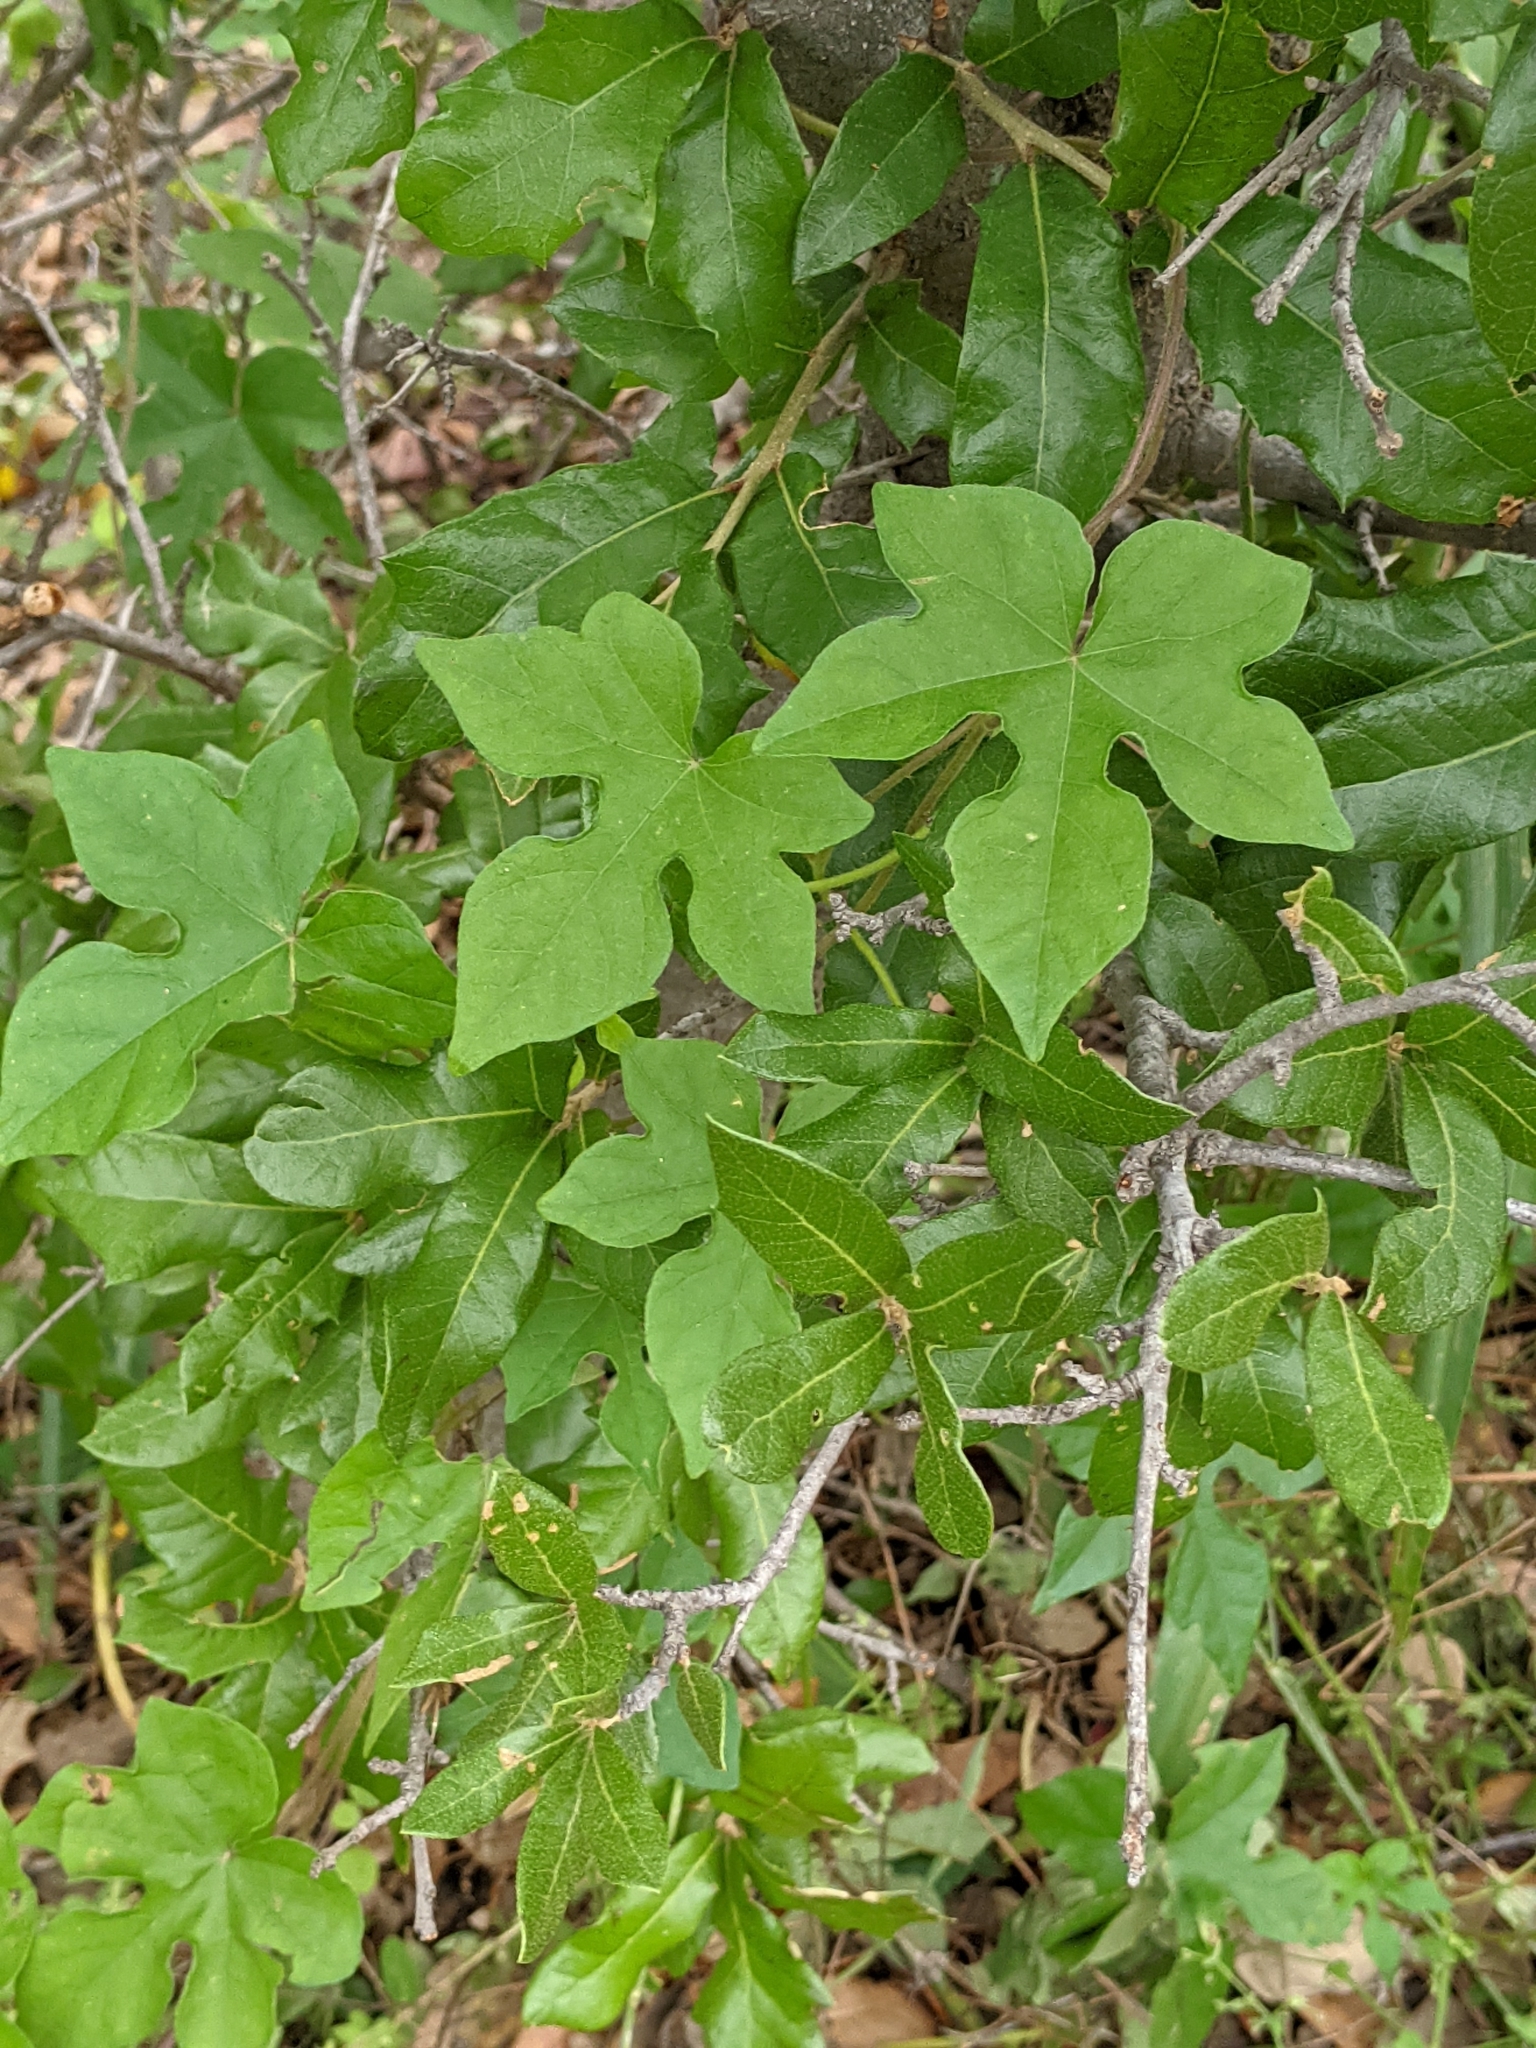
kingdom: Plantae
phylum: Tracheophyta
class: Magnoliopsida
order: Solanales
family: Convolvulaceae
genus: Ipomoea
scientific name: Ipomoea lindheimeri
